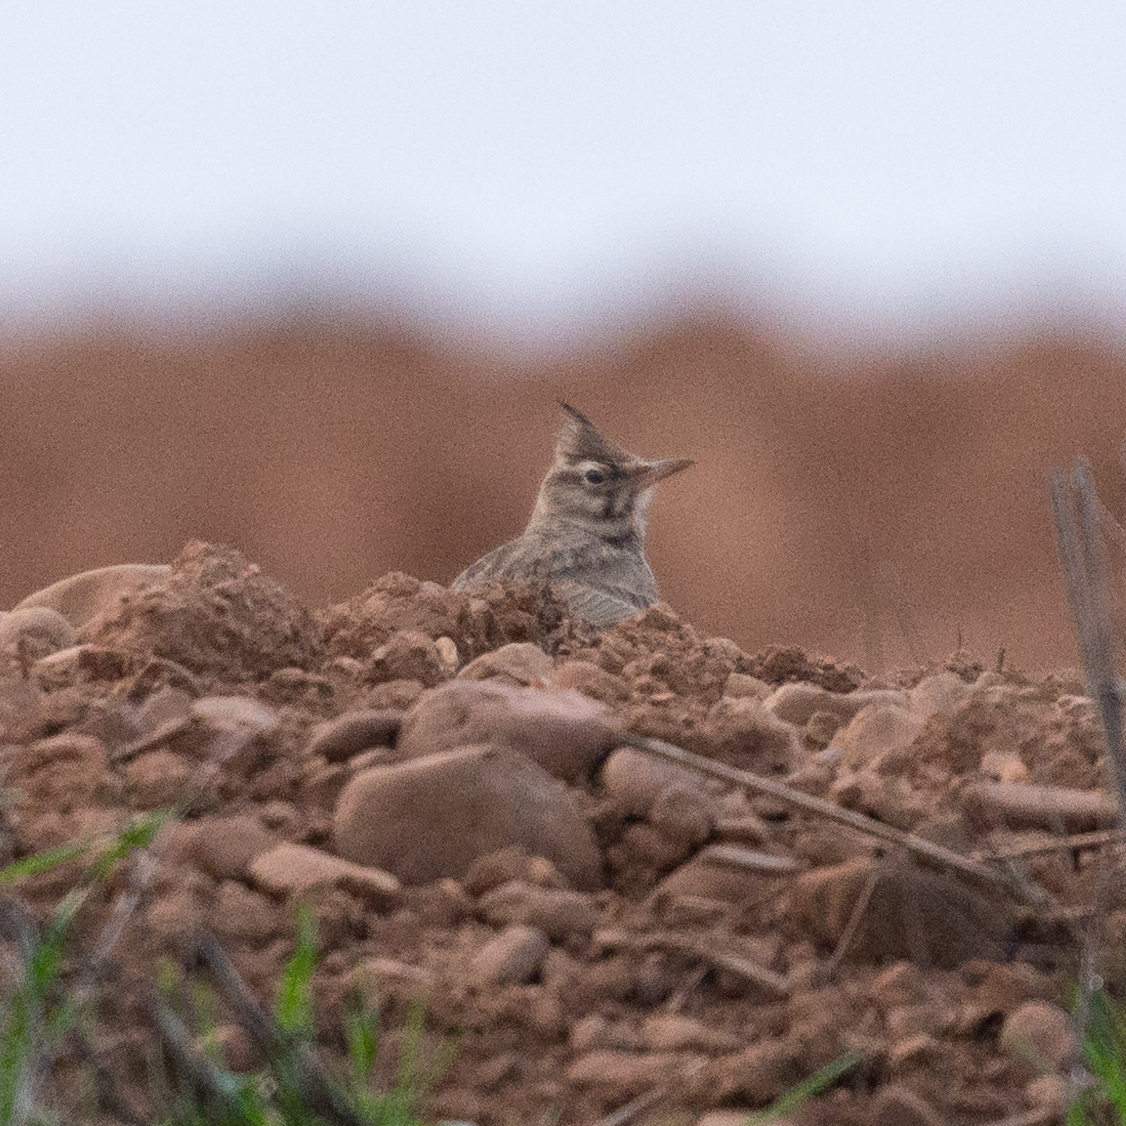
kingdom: Animalia
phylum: Chordata
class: Aves
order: Passeriformes
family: Alaudidae
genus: Galerida
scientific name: Galerida cristata
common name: Crested lark
